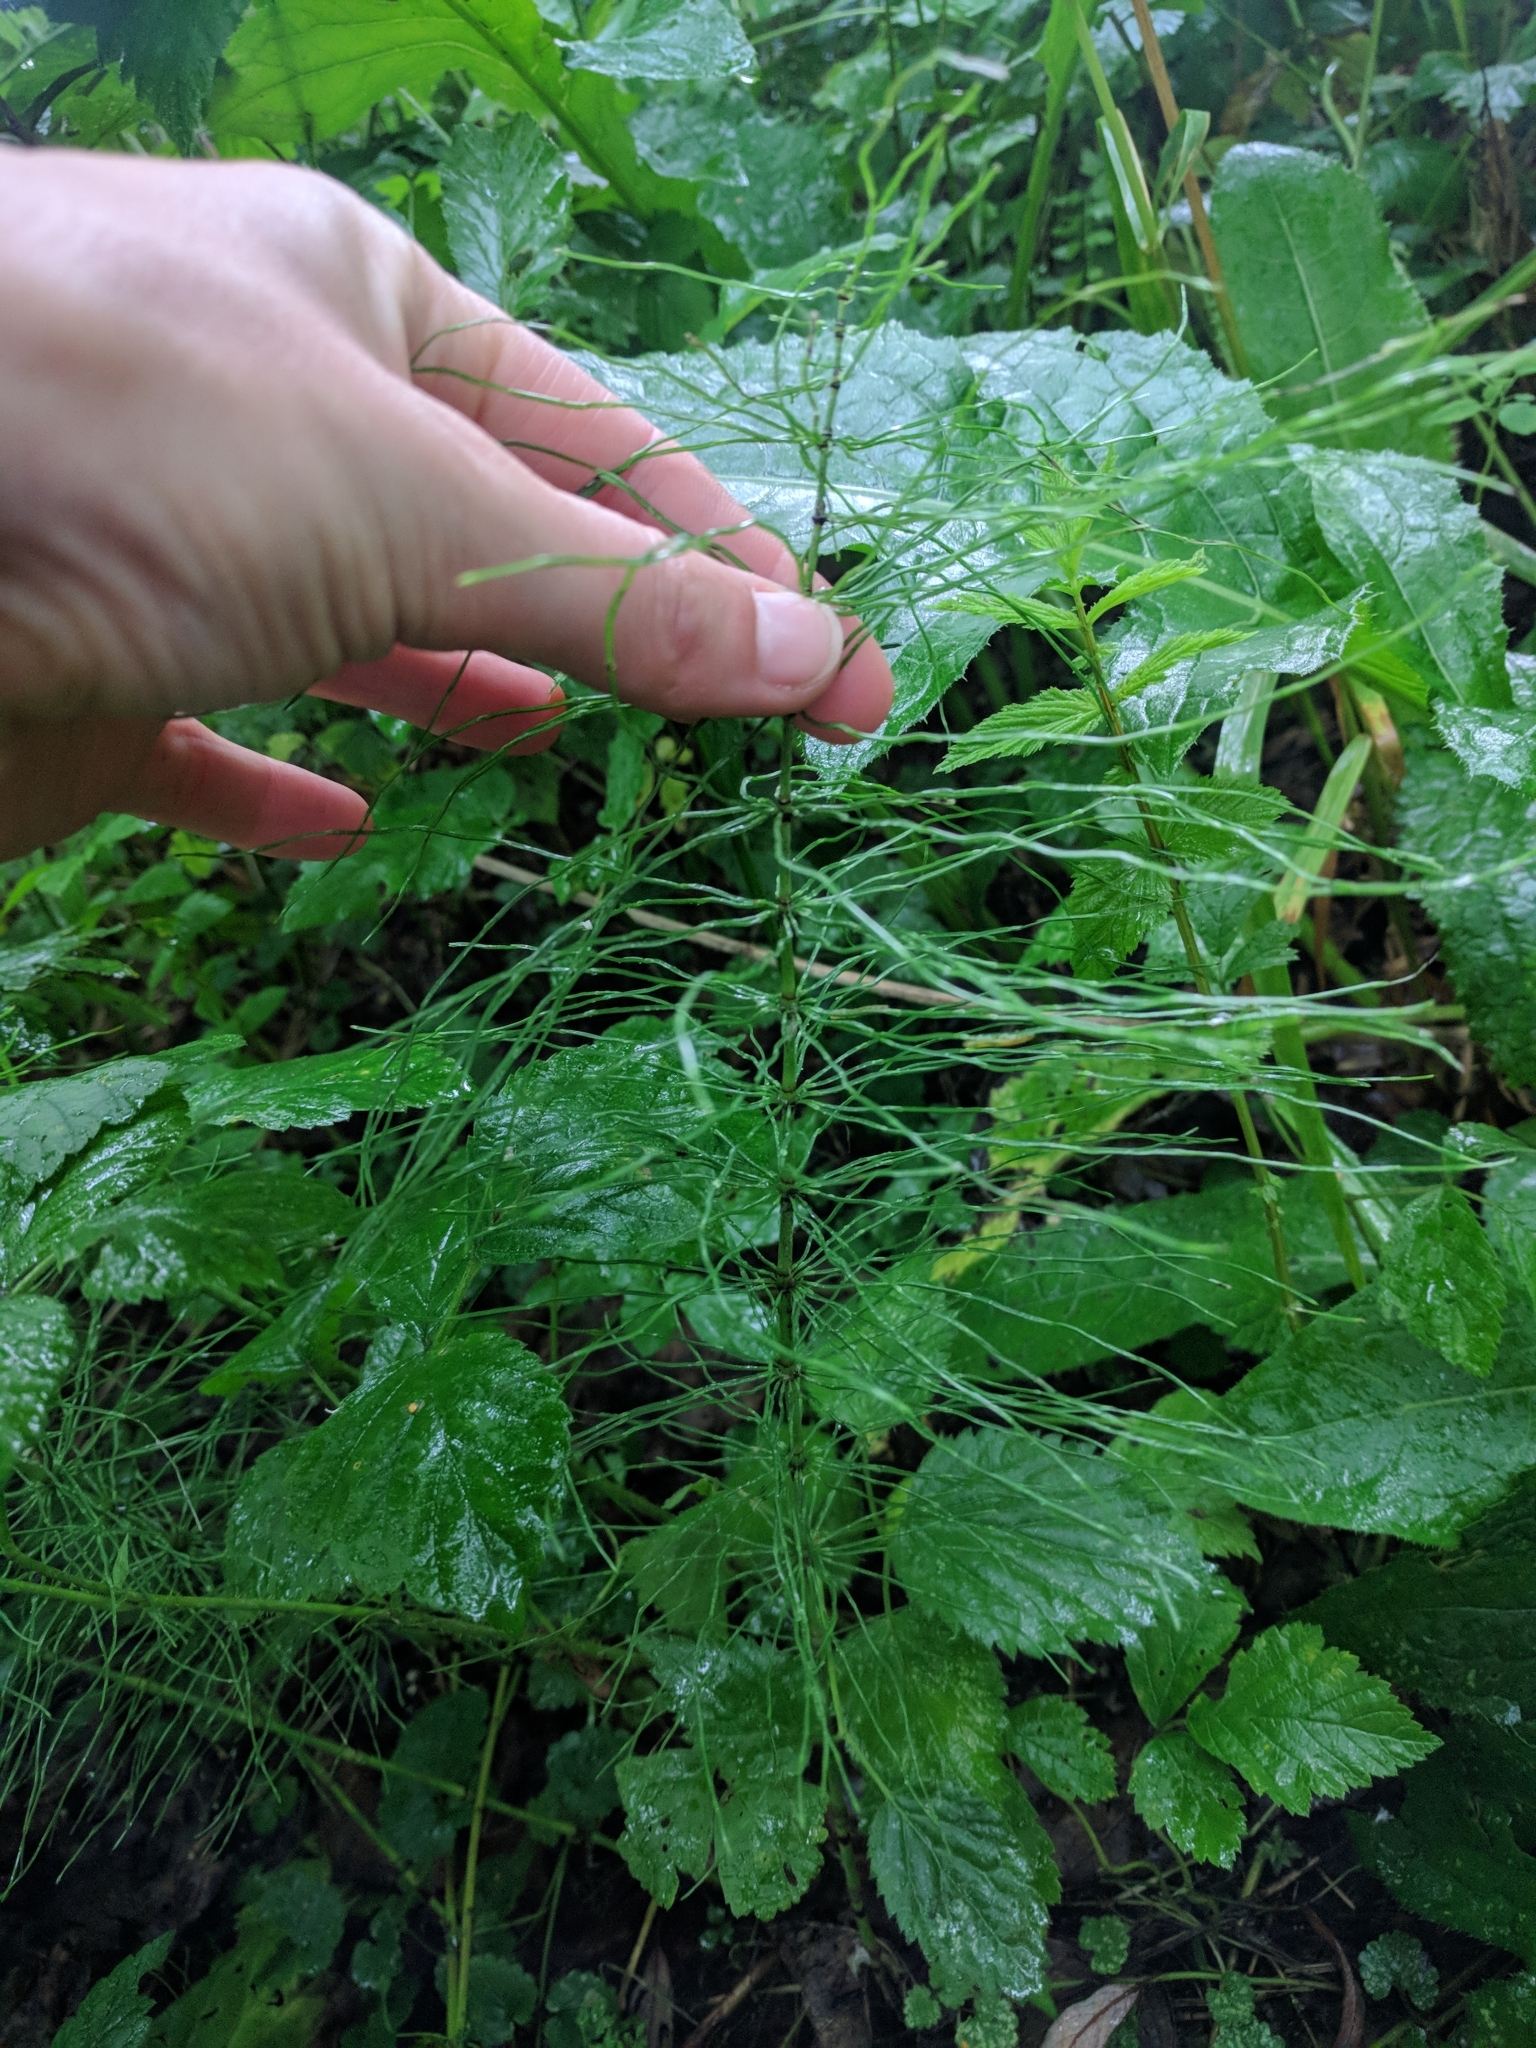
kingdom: Plantae
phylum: Tracheophyta
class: Polypodiopsida
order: Equisetales
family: Equisetaceae
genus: Equisetum
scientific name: Equisetum pratense
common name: Meadow horsetail
